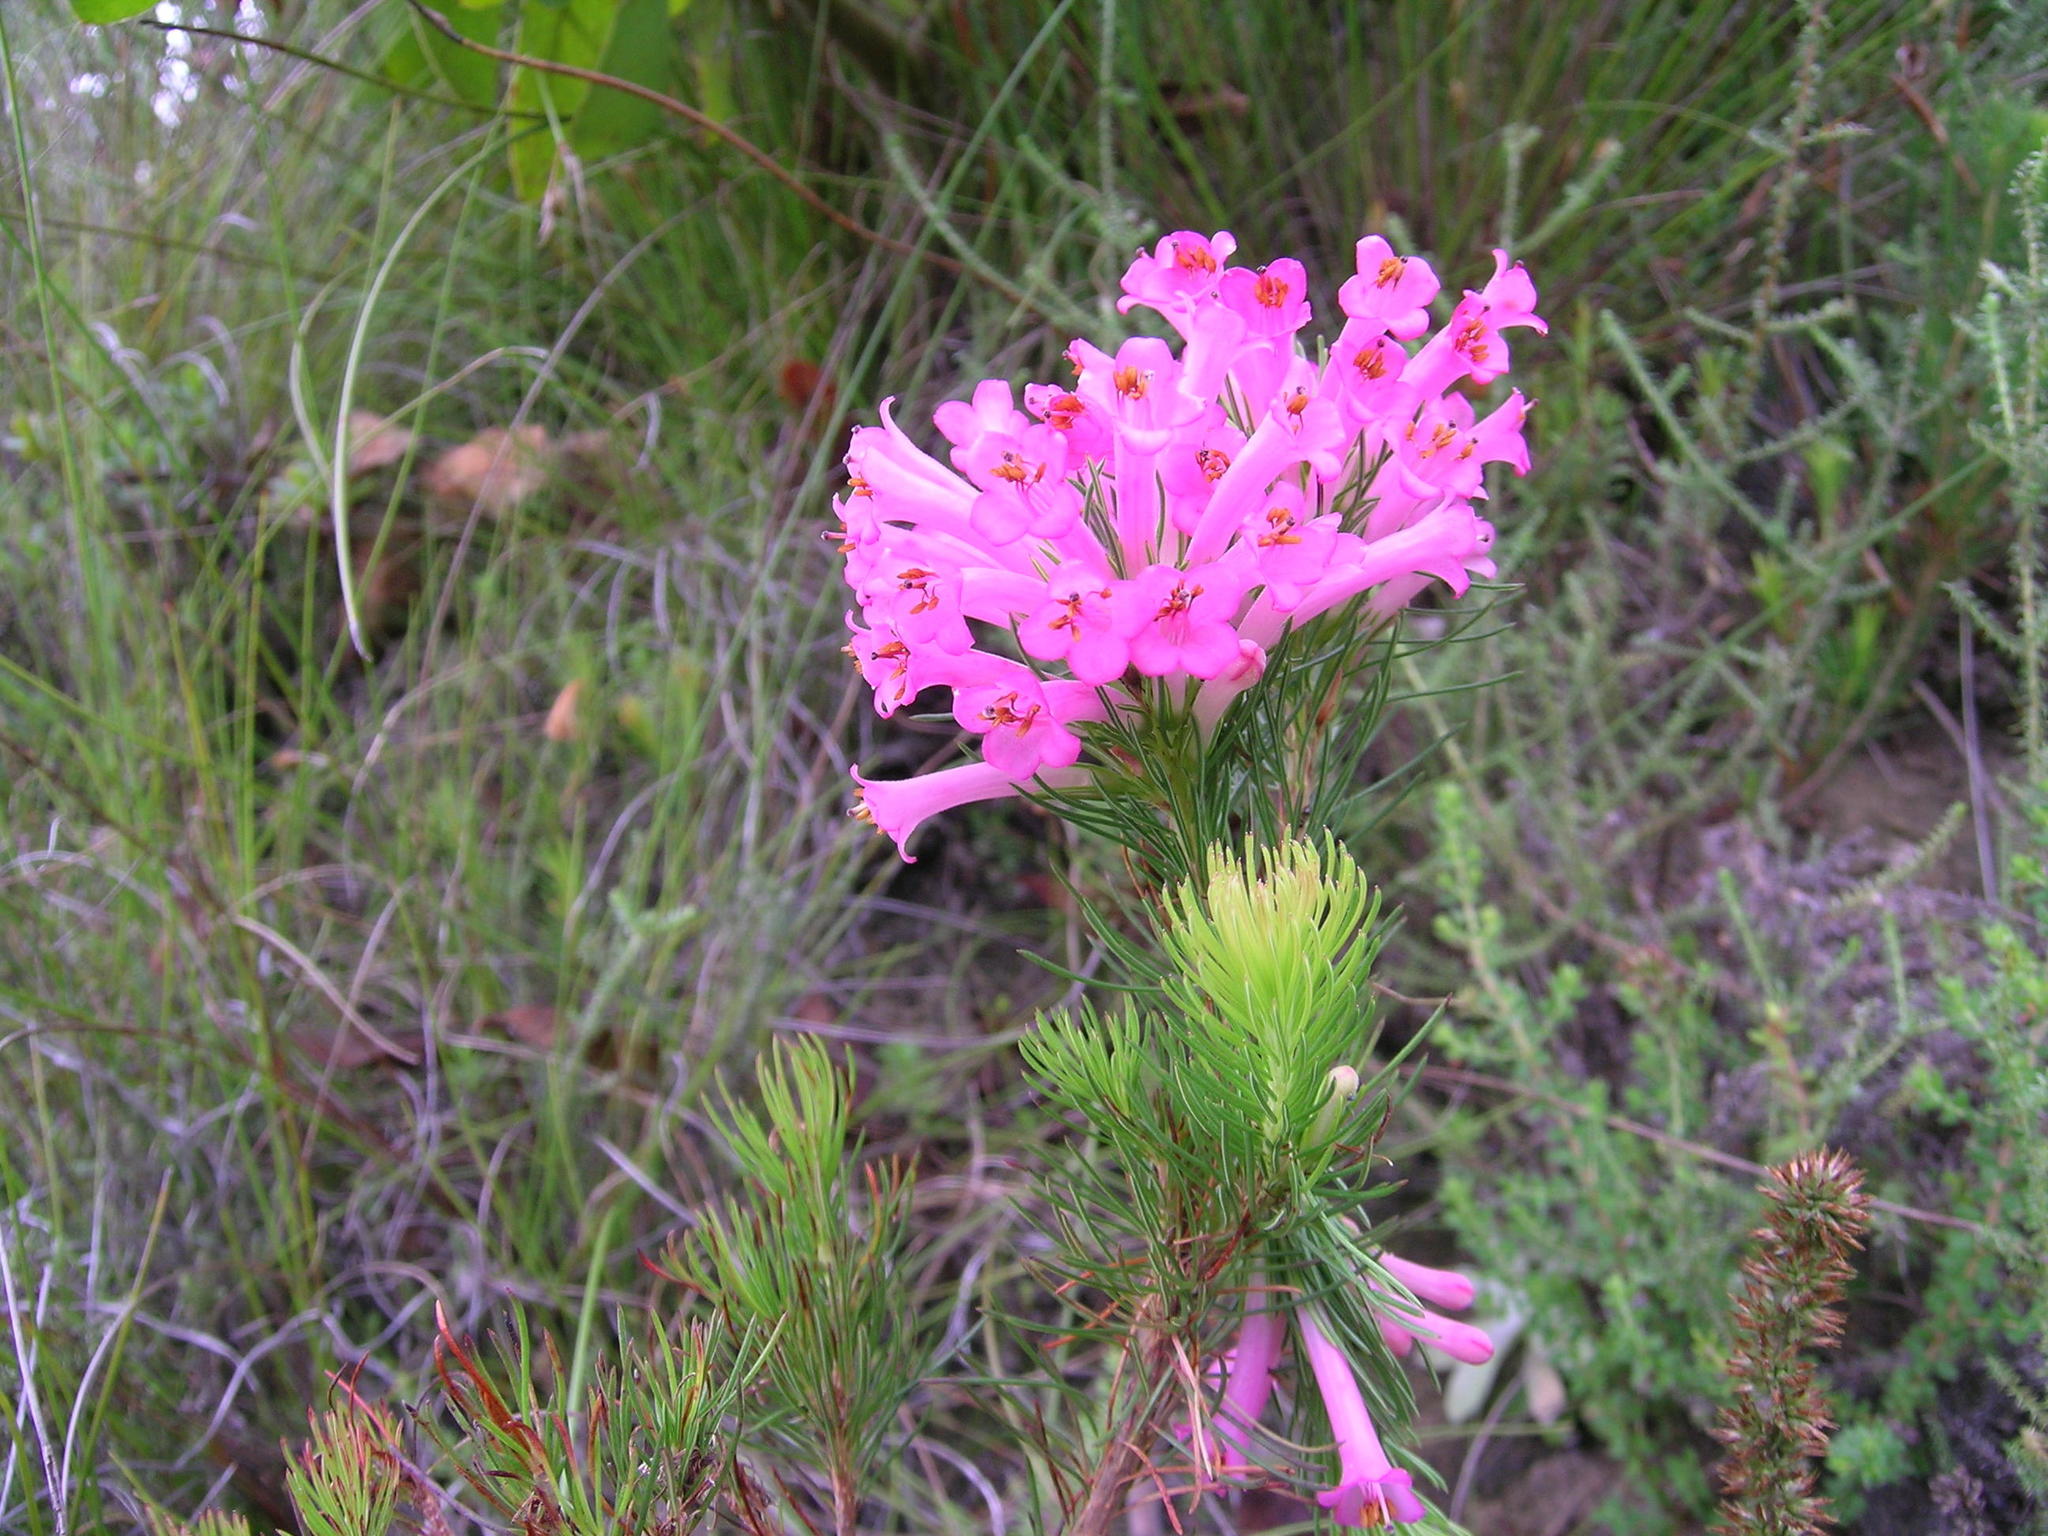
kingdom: Plantae
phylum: Tracheophyta
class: Magnoliopsida
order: Ericales
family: Ericaceae
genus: Erica
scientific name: Erica vestita
